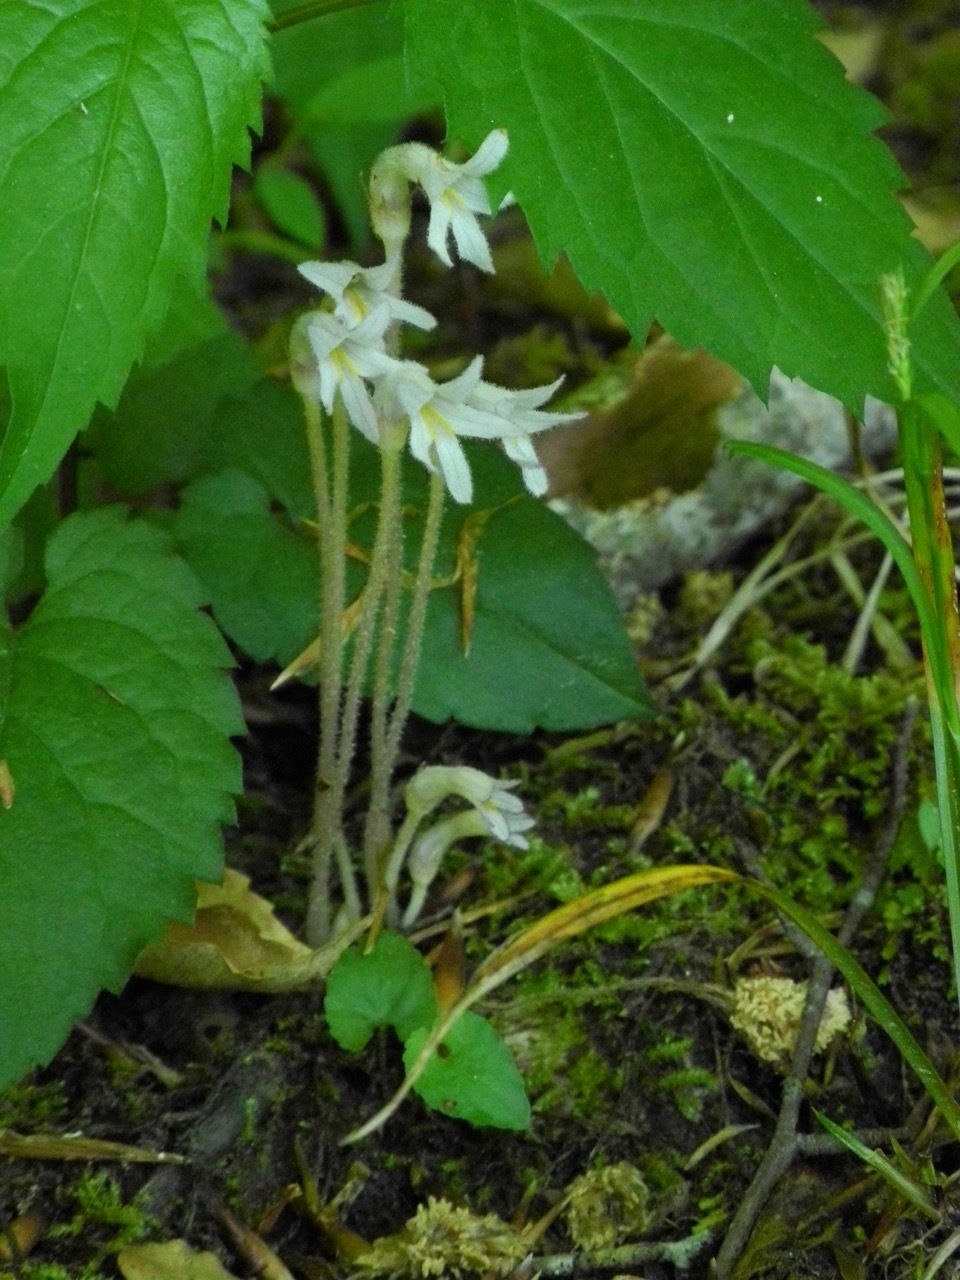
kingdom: Plantae
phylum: Tracheophyta
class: Magnoliopsida
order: Lamiales
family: Orobanchaceae
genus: Aphyllon
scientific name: Aphyllon uniflorum
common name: One-flowered broomrape
